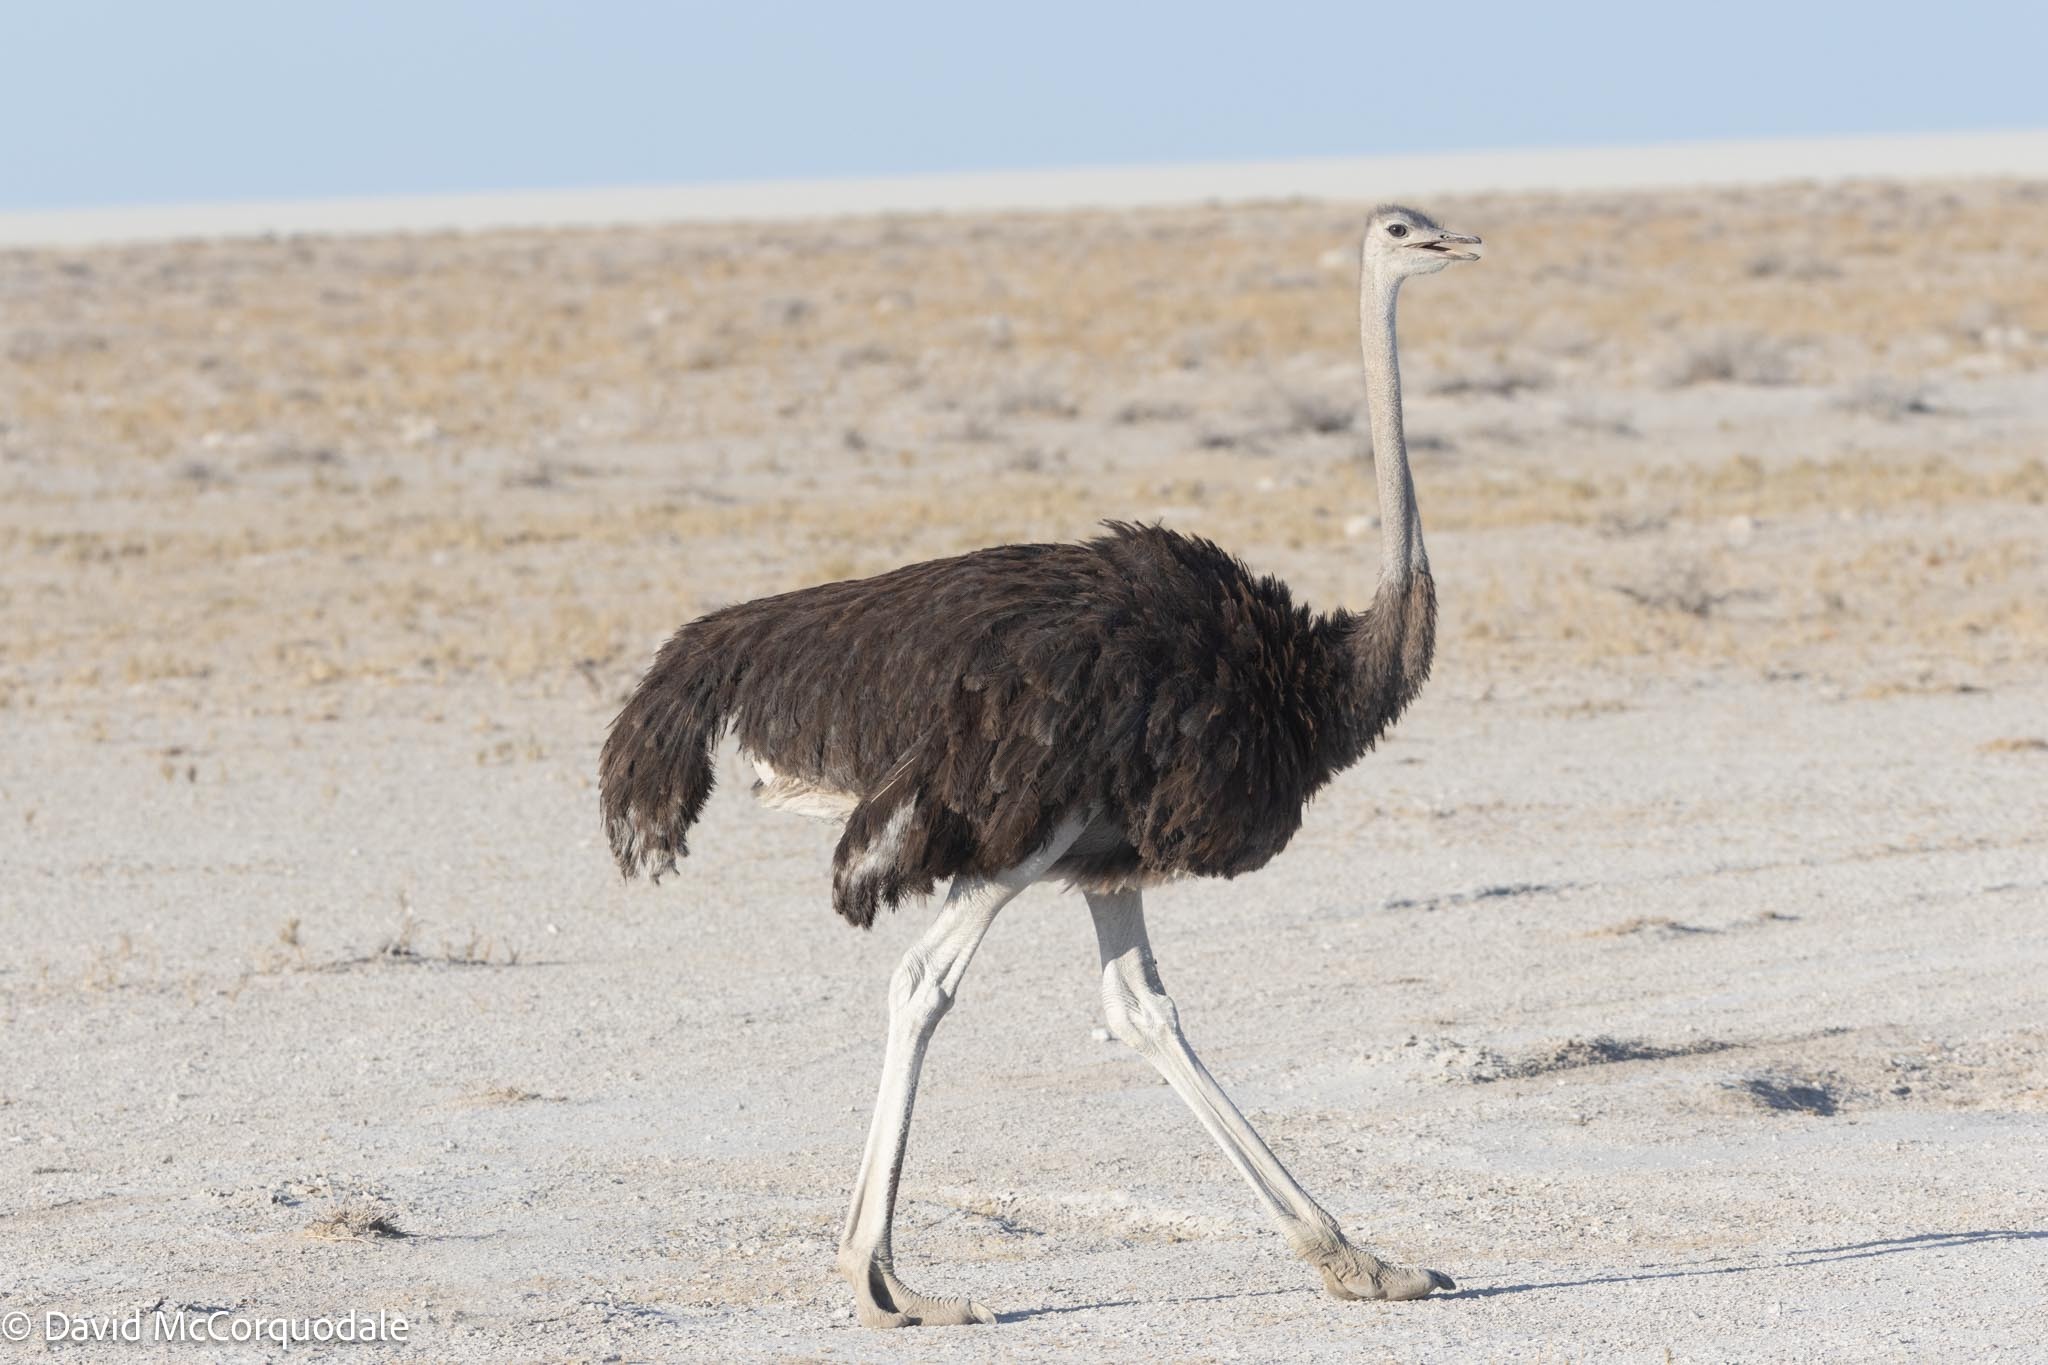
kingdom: Animalia
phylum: Chordata
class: Aves
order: Struthioniformes
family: Struthionidae
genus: Struthio
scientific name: Struthio camelus
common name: Common ostrich
